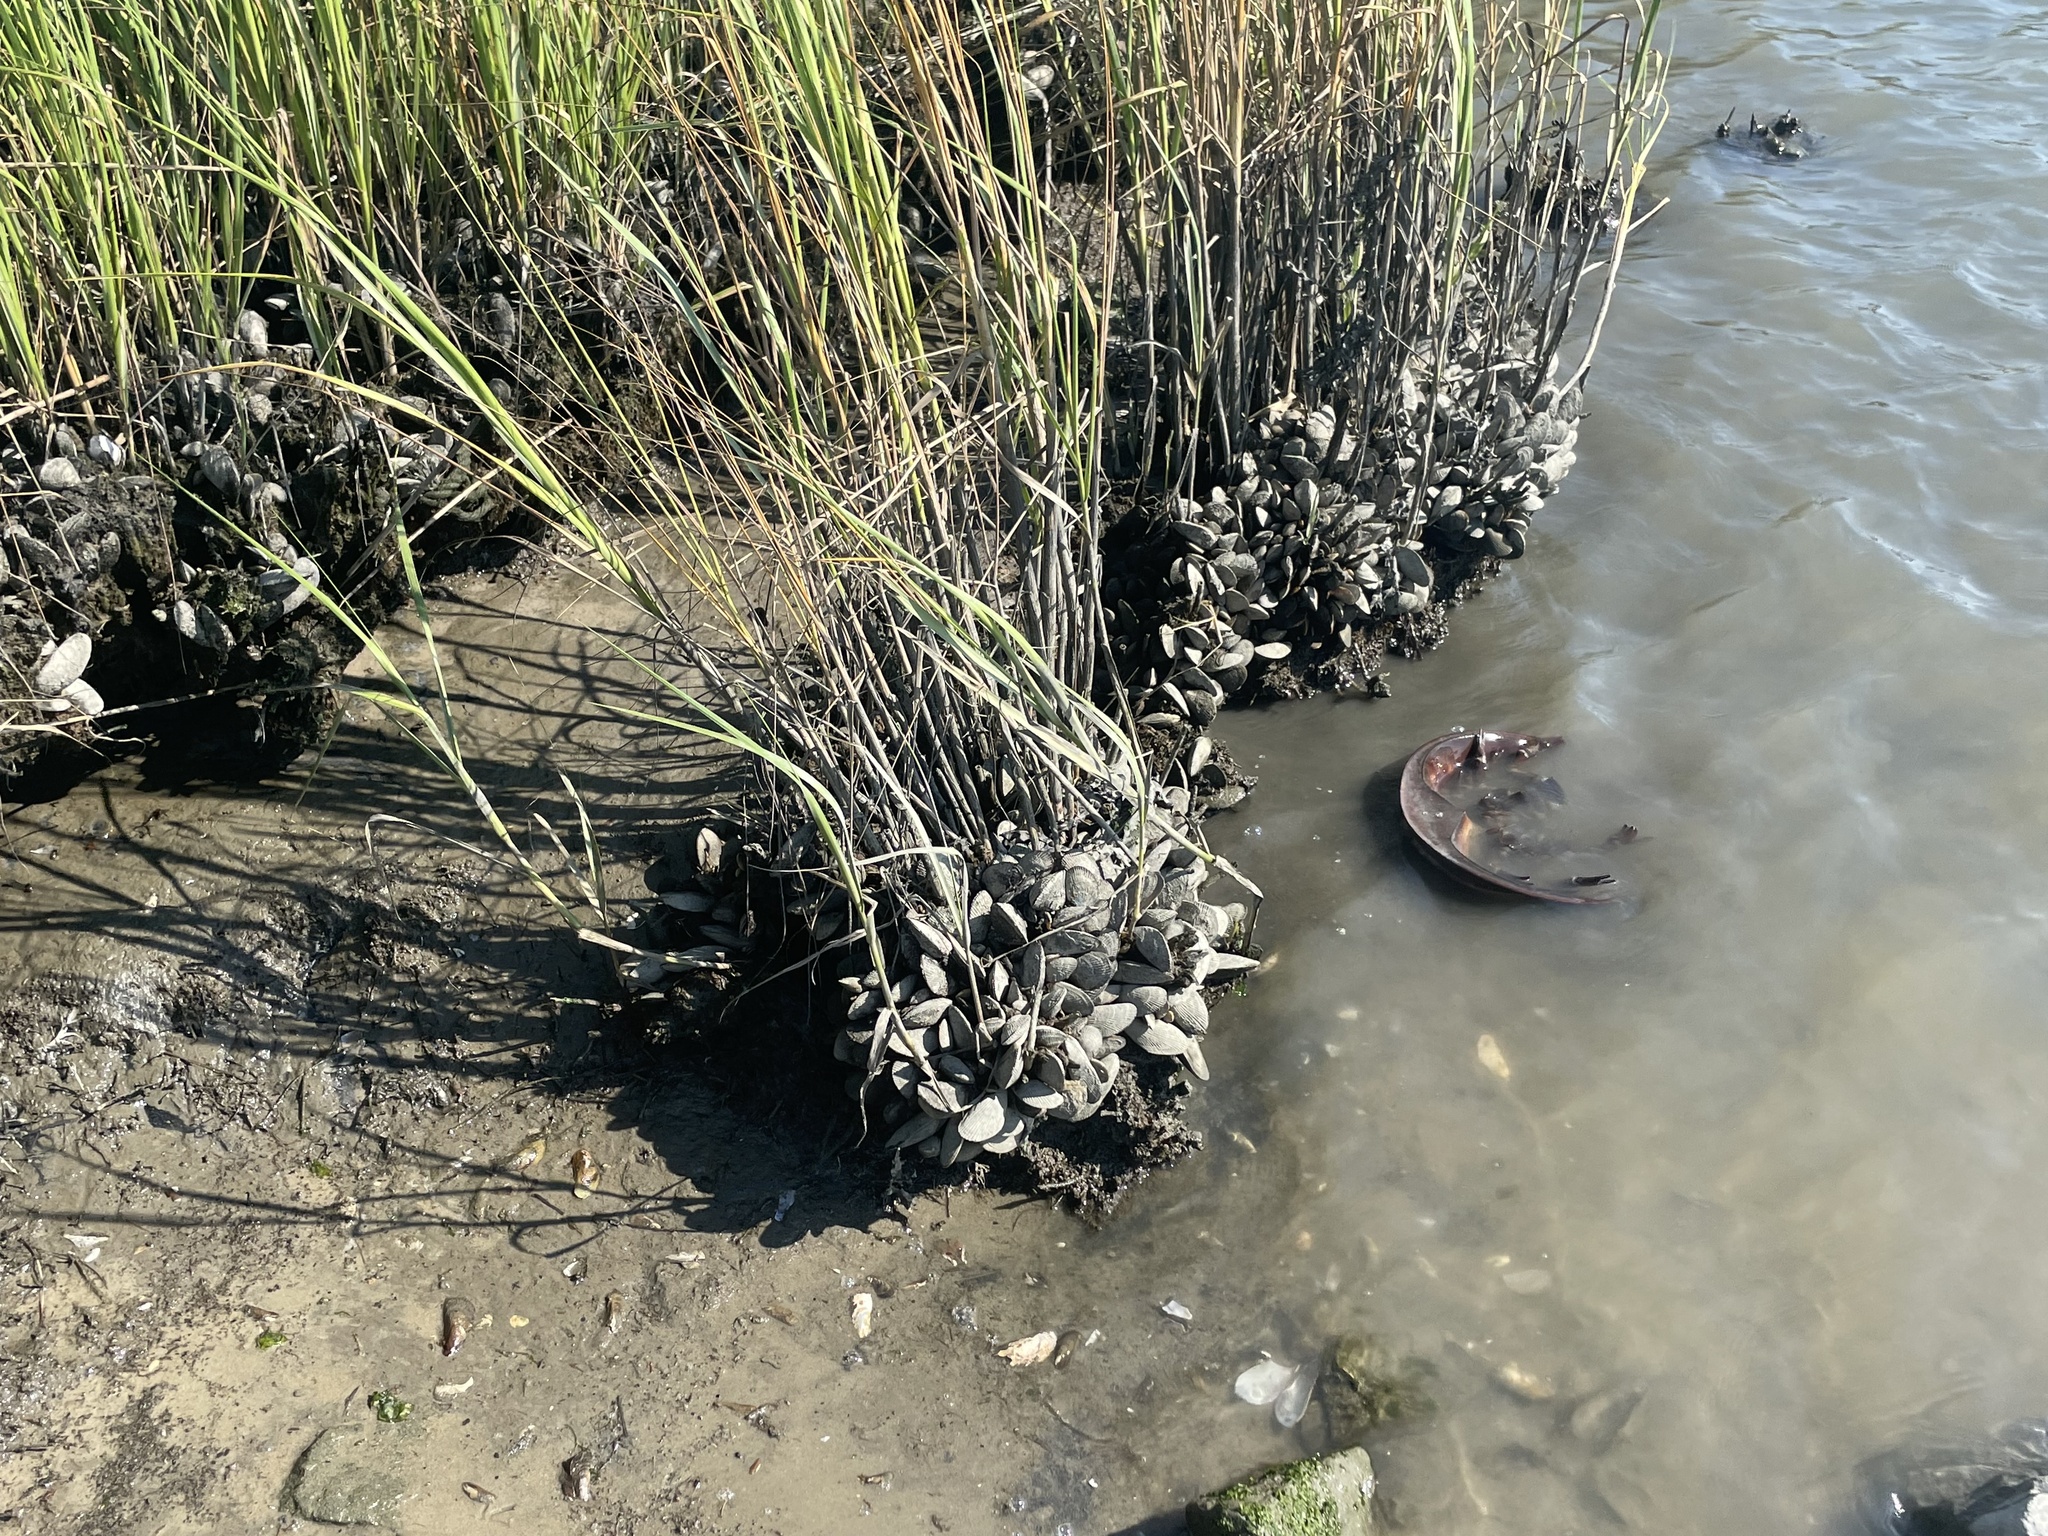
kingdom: Animalia
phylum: Mollusca
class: Bivalvia
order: Mytilida
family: Mytilidae
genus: Geukensia
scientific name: Geukensia demissa
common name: Ribbed mussel
